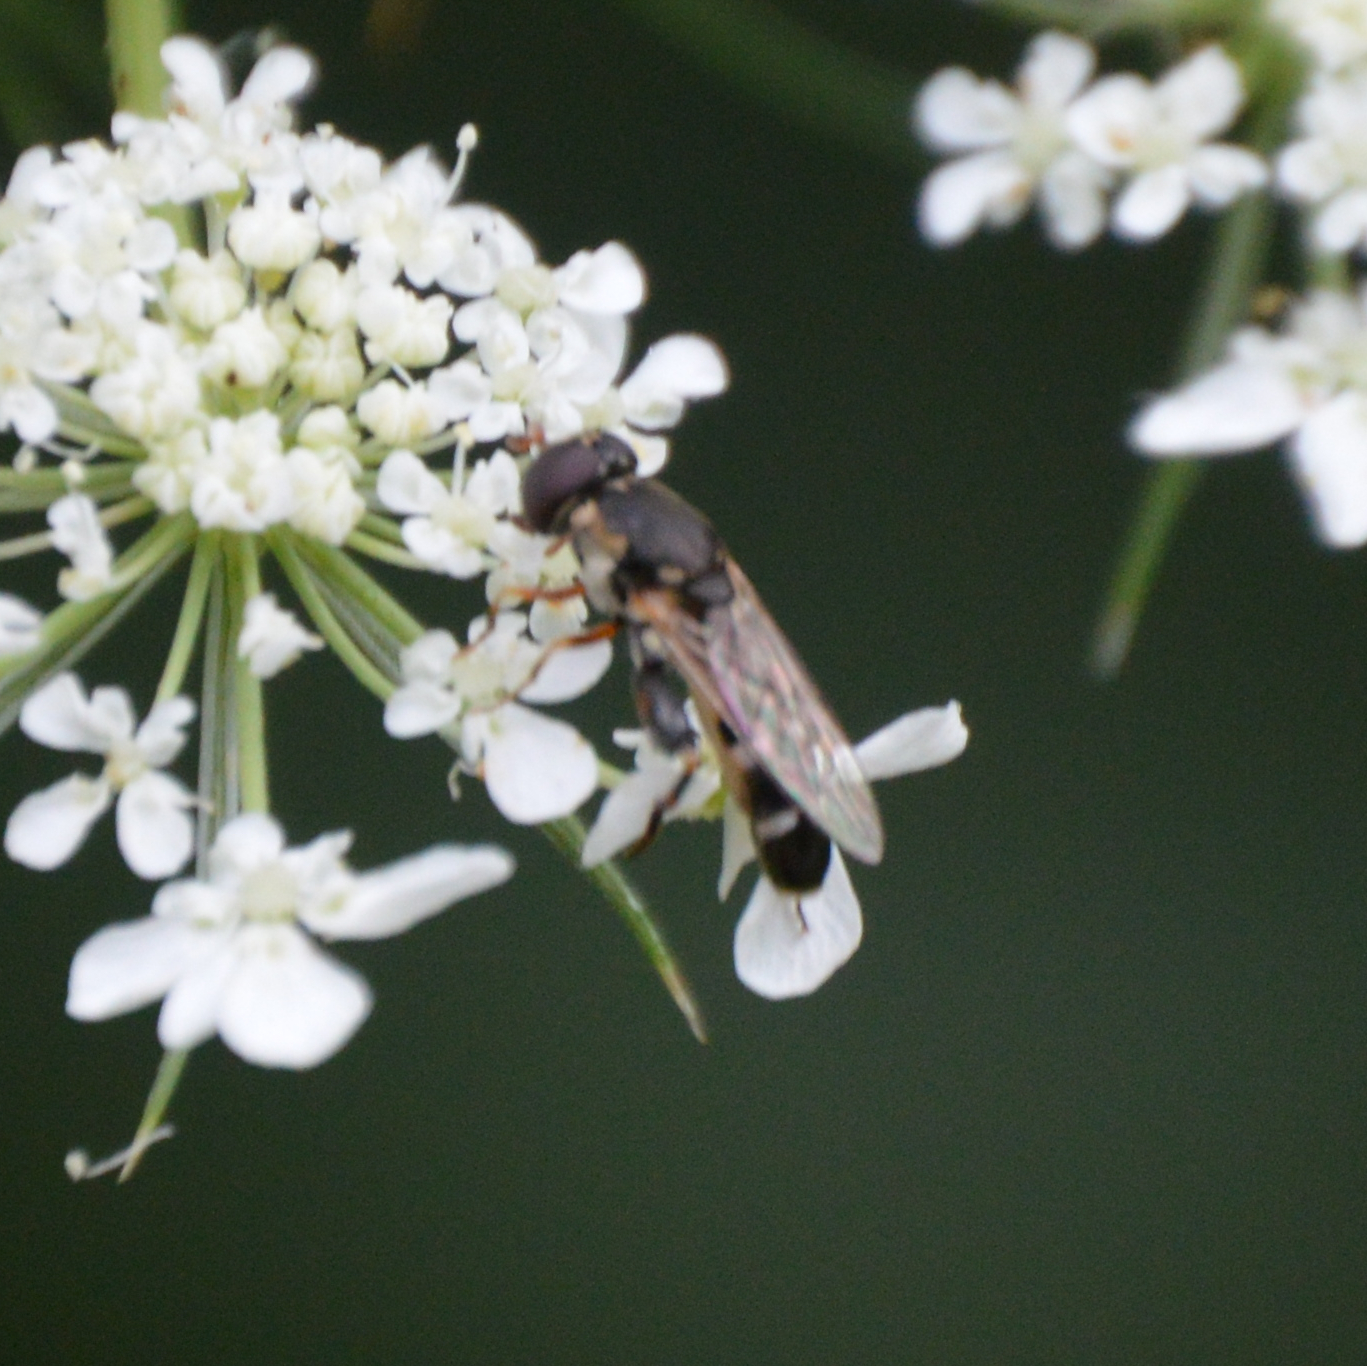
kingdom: Animalia
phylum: Arthropoda
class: Insecta
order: Diptera
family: Syrphidae
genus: Syritta
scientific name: Syritta pipiens
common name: Hover fly
